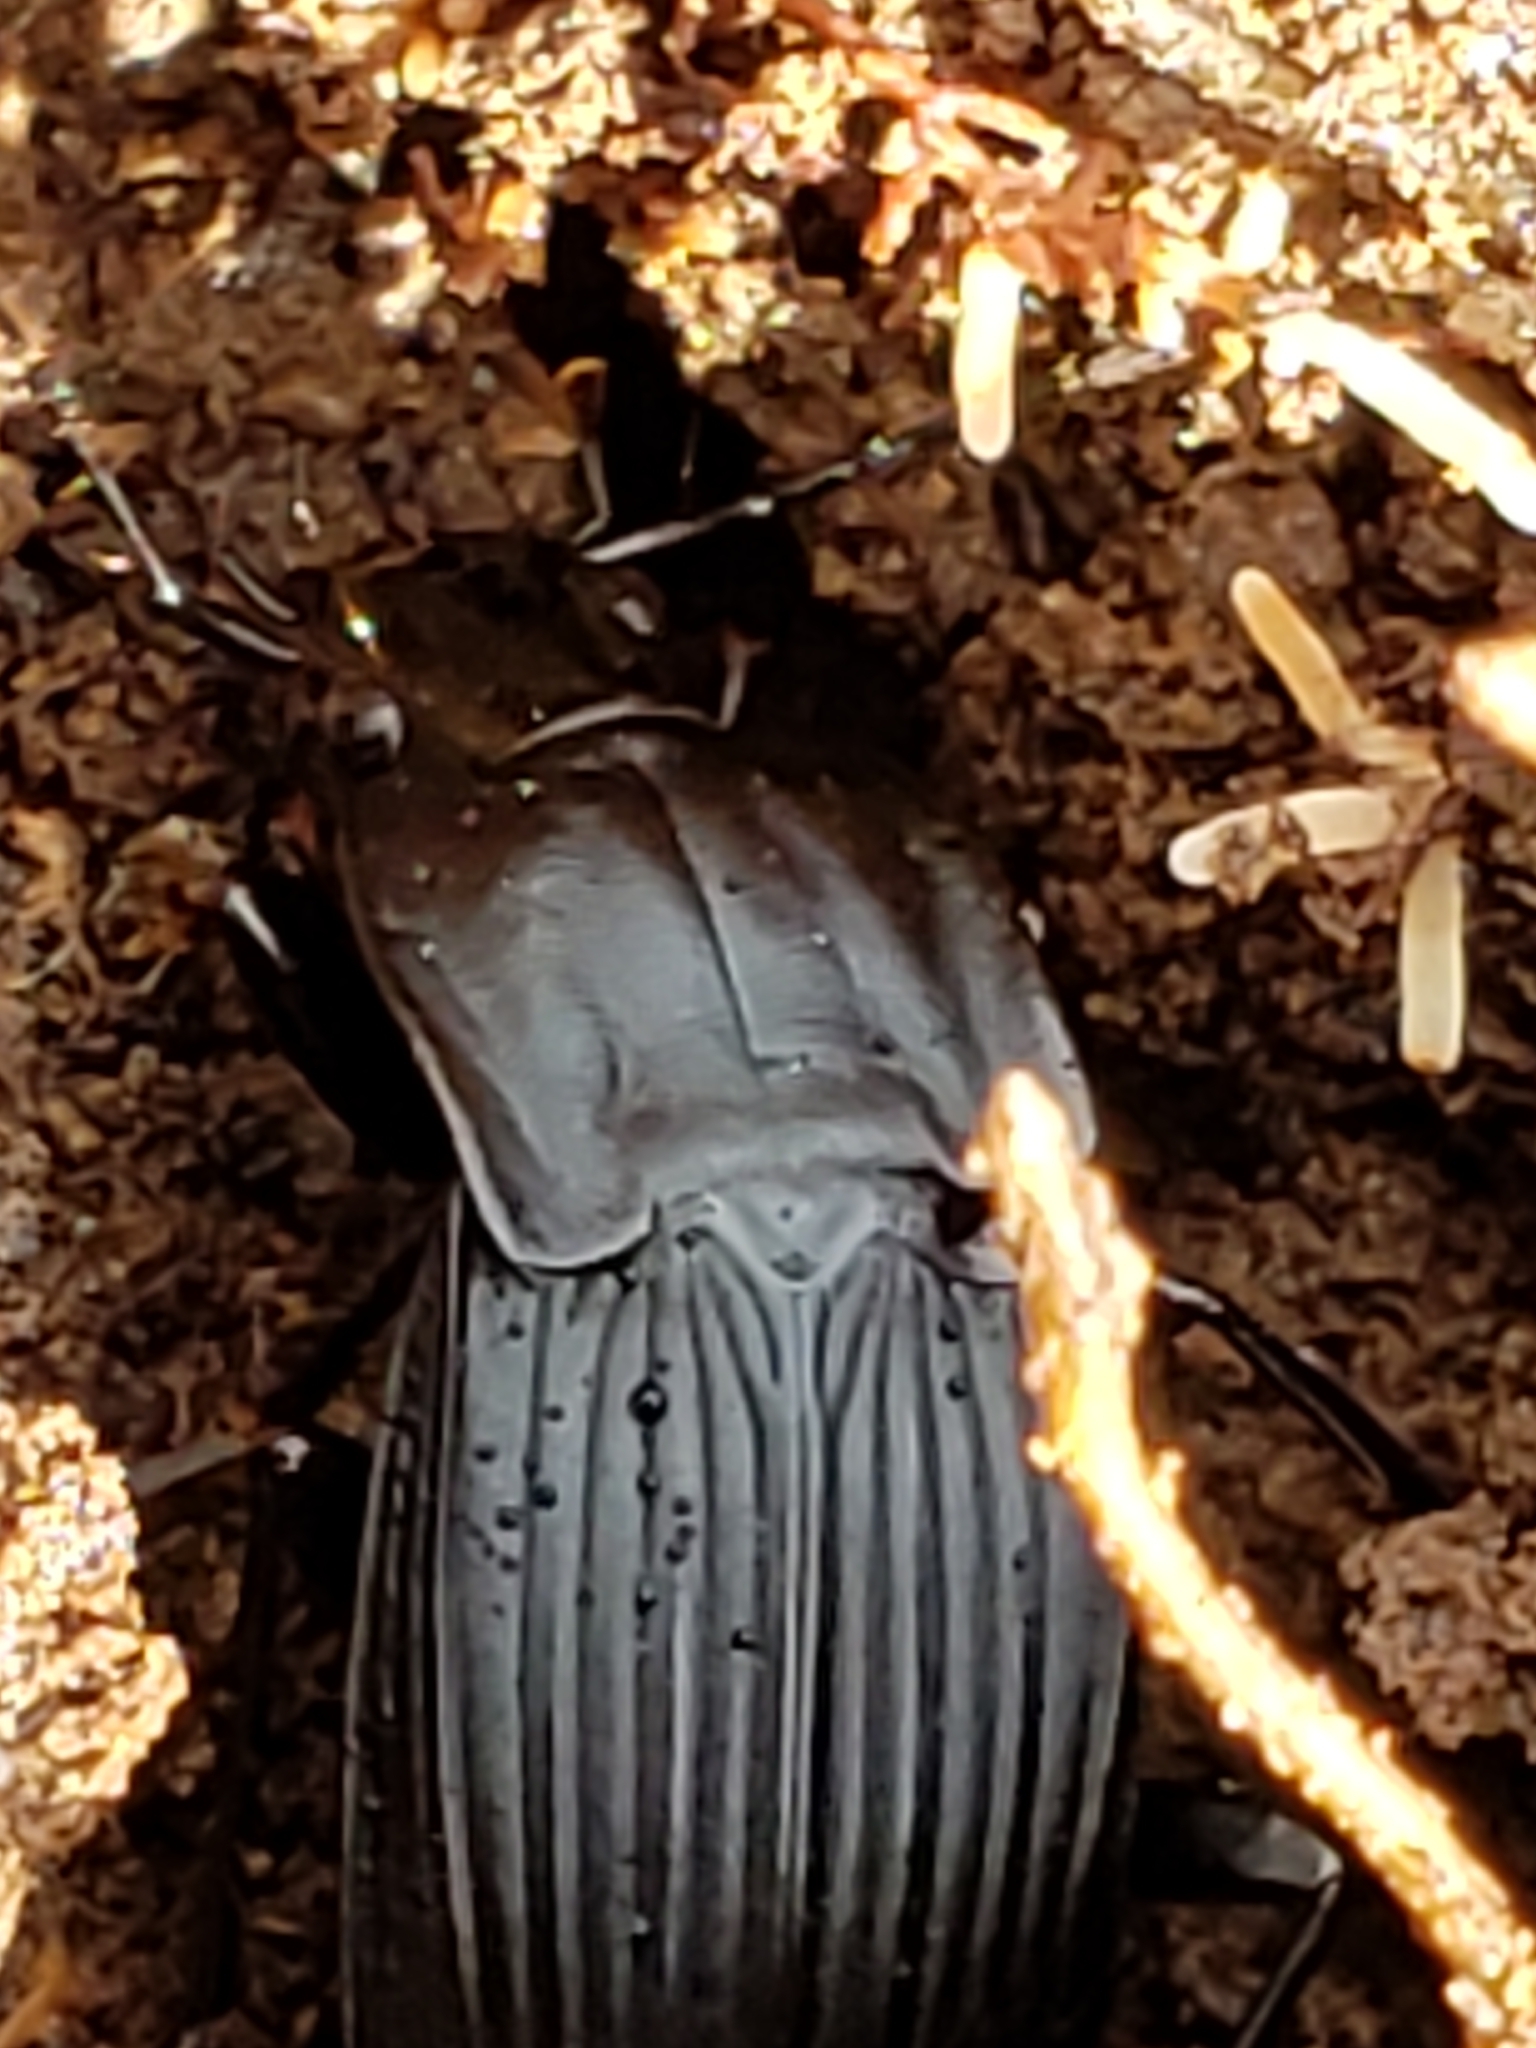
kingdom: Animalia
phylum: Arthropoda
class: Insecta
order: Coleoptera
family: Carabidae
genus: Dicaelus
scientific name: Dicaelus elongatus
